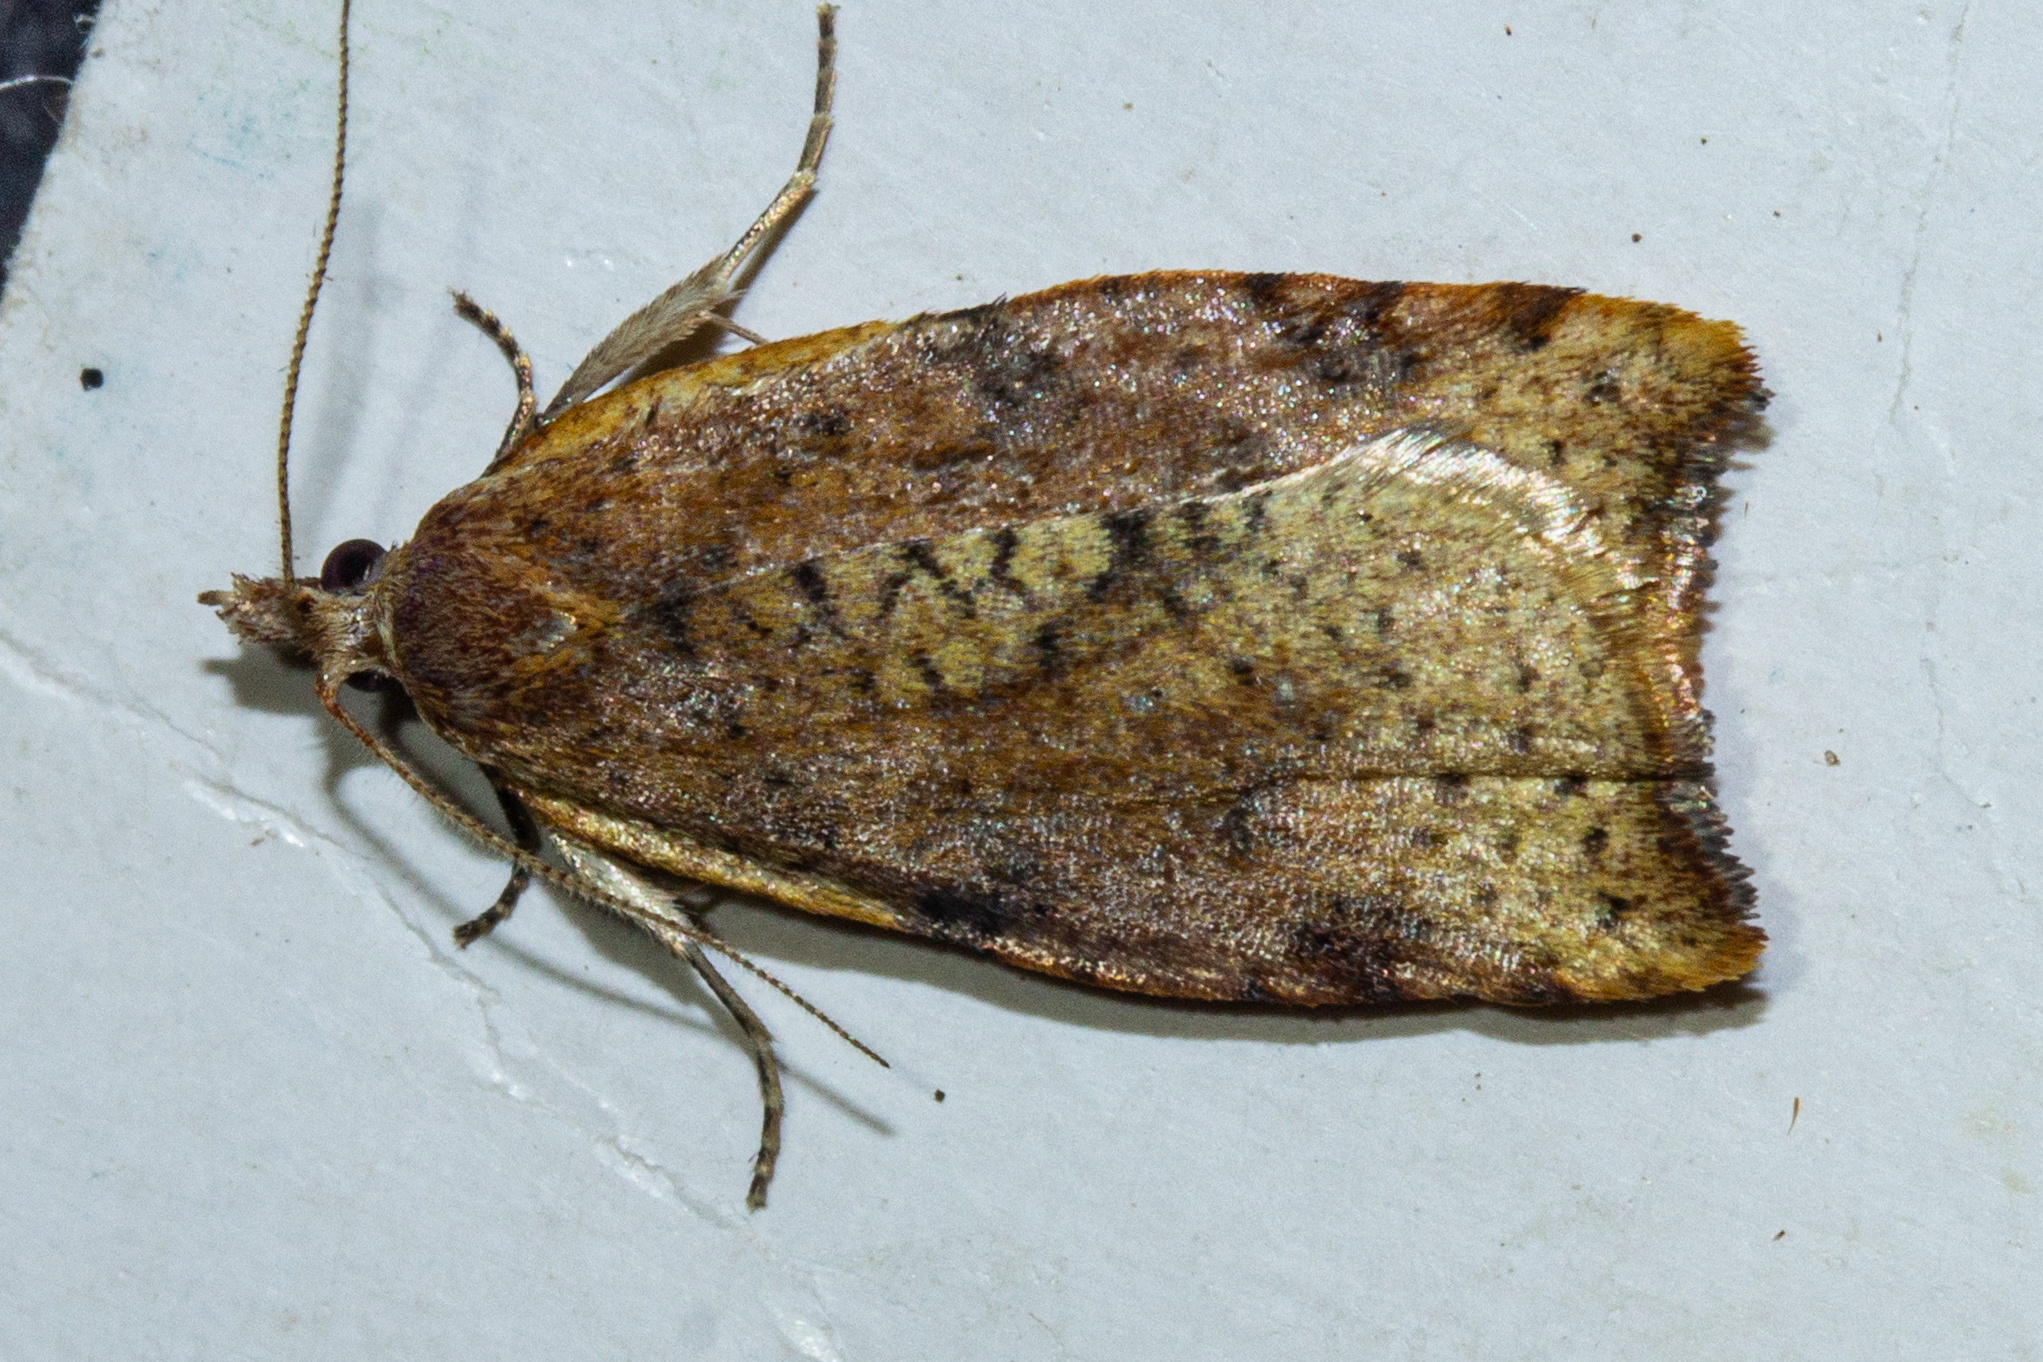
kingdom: Animalia
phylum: Arthropoda
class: Insecta
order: Lepidoptera
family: Tortricidae
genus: Apoctena
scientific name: Apoctena flavescens
